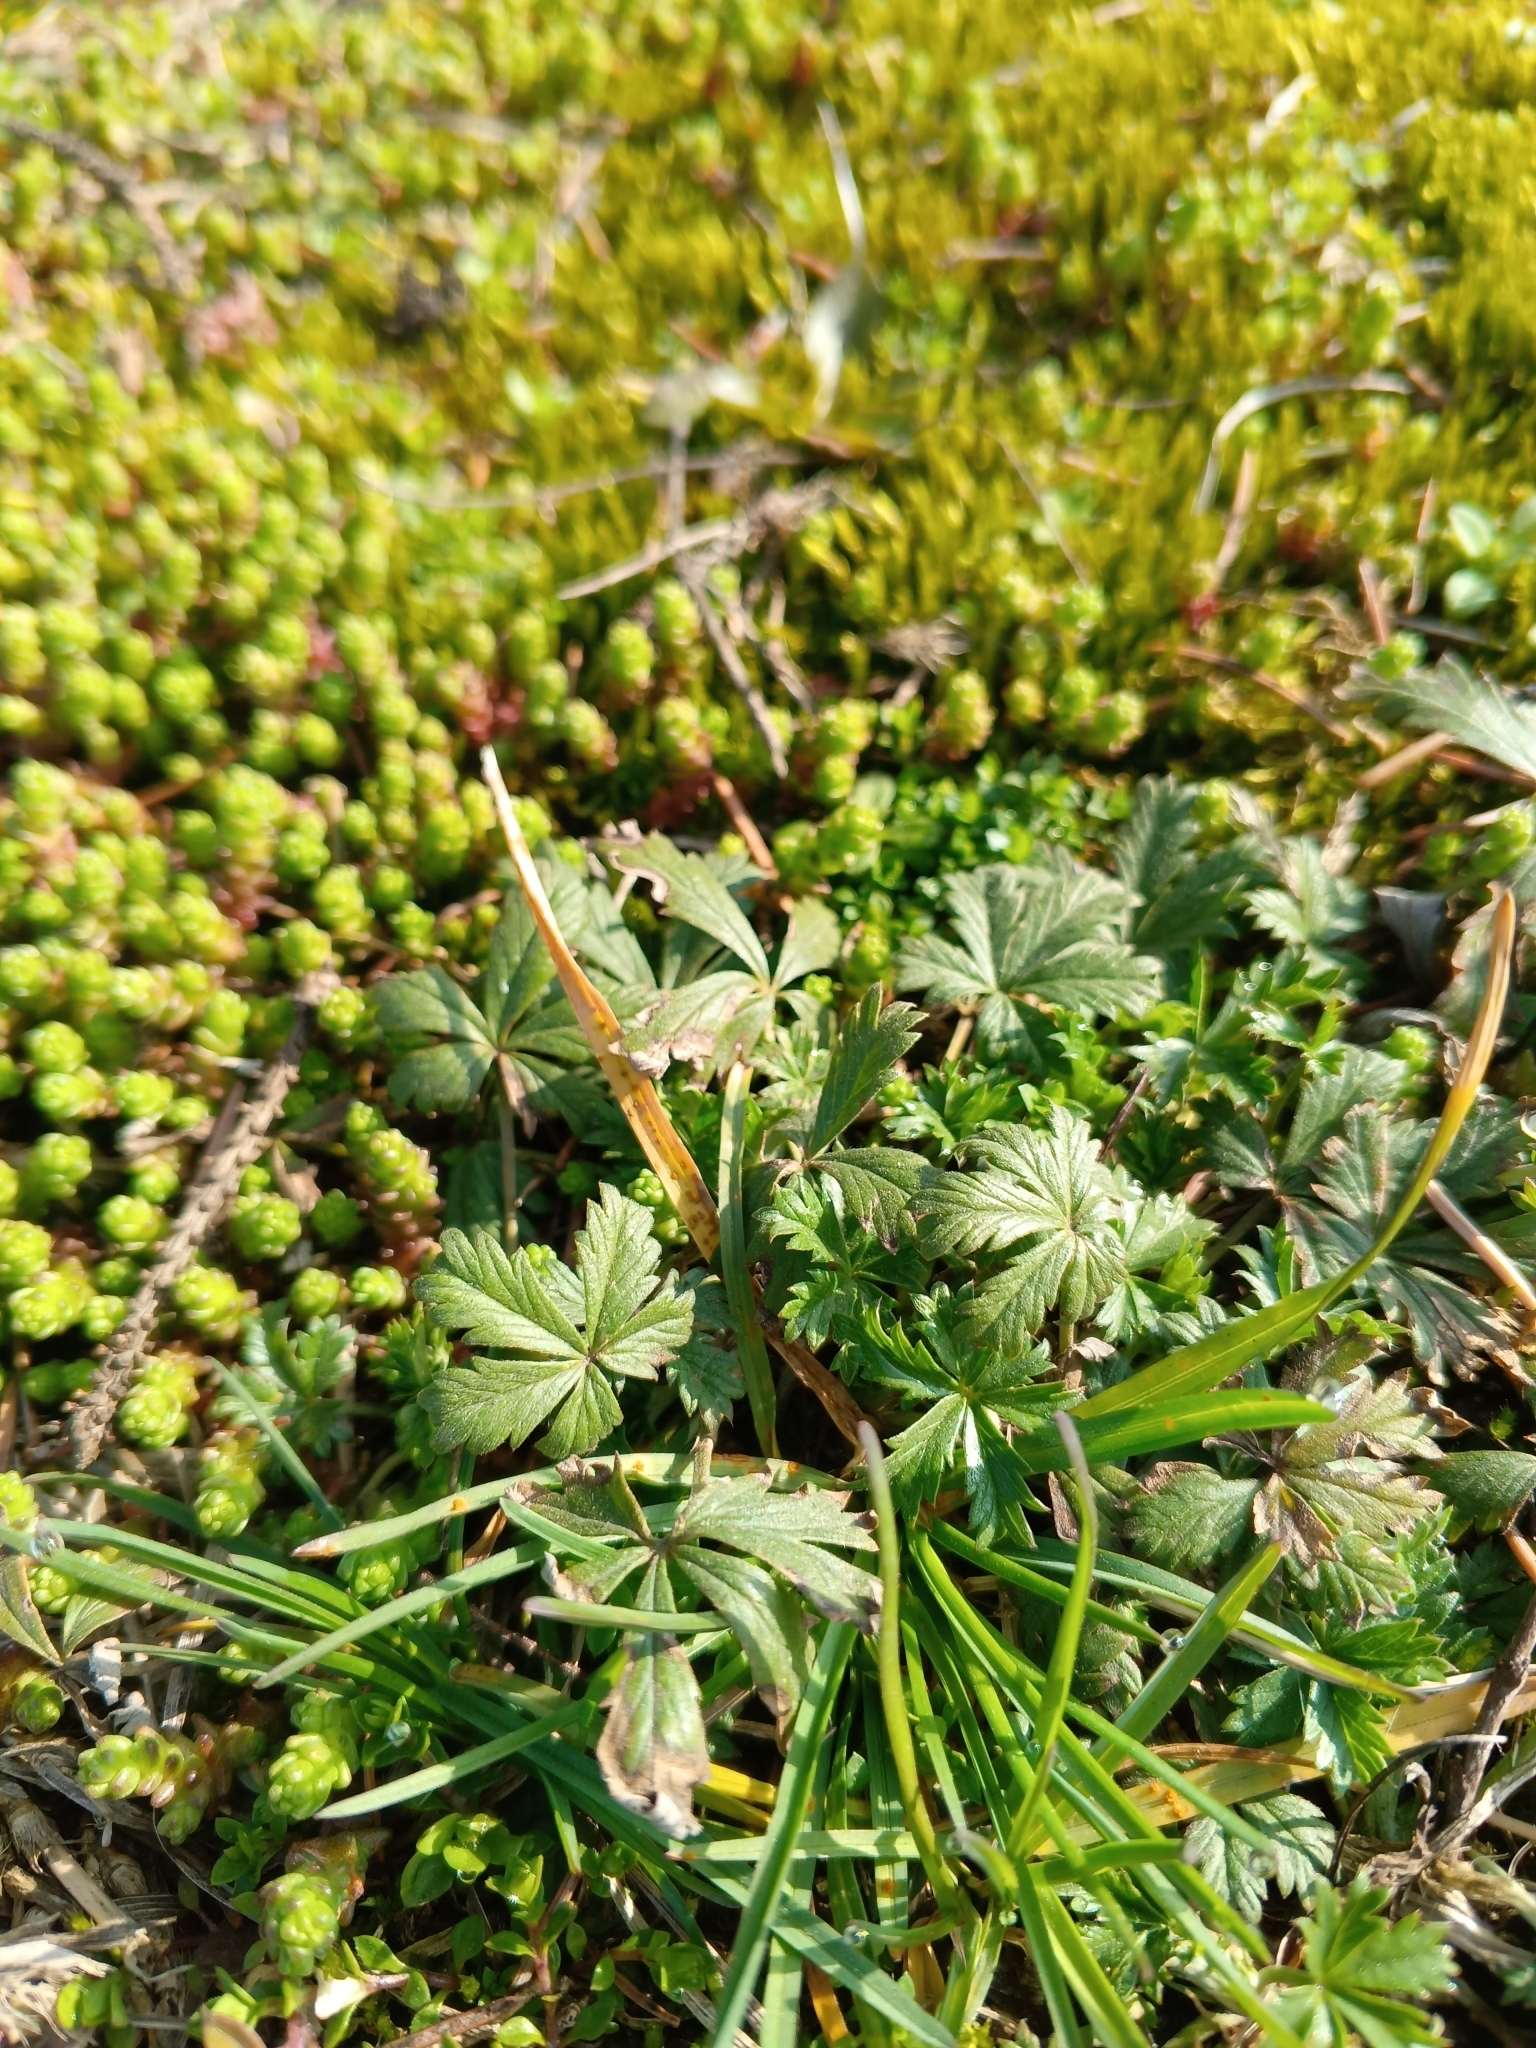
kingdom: Plantae
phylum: Tracheophyta
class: Magnoliopsida
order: Rosales
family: Rosaceae
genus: Potentilla
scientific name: Potentilla argentea
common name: Hoary cinquefoil
